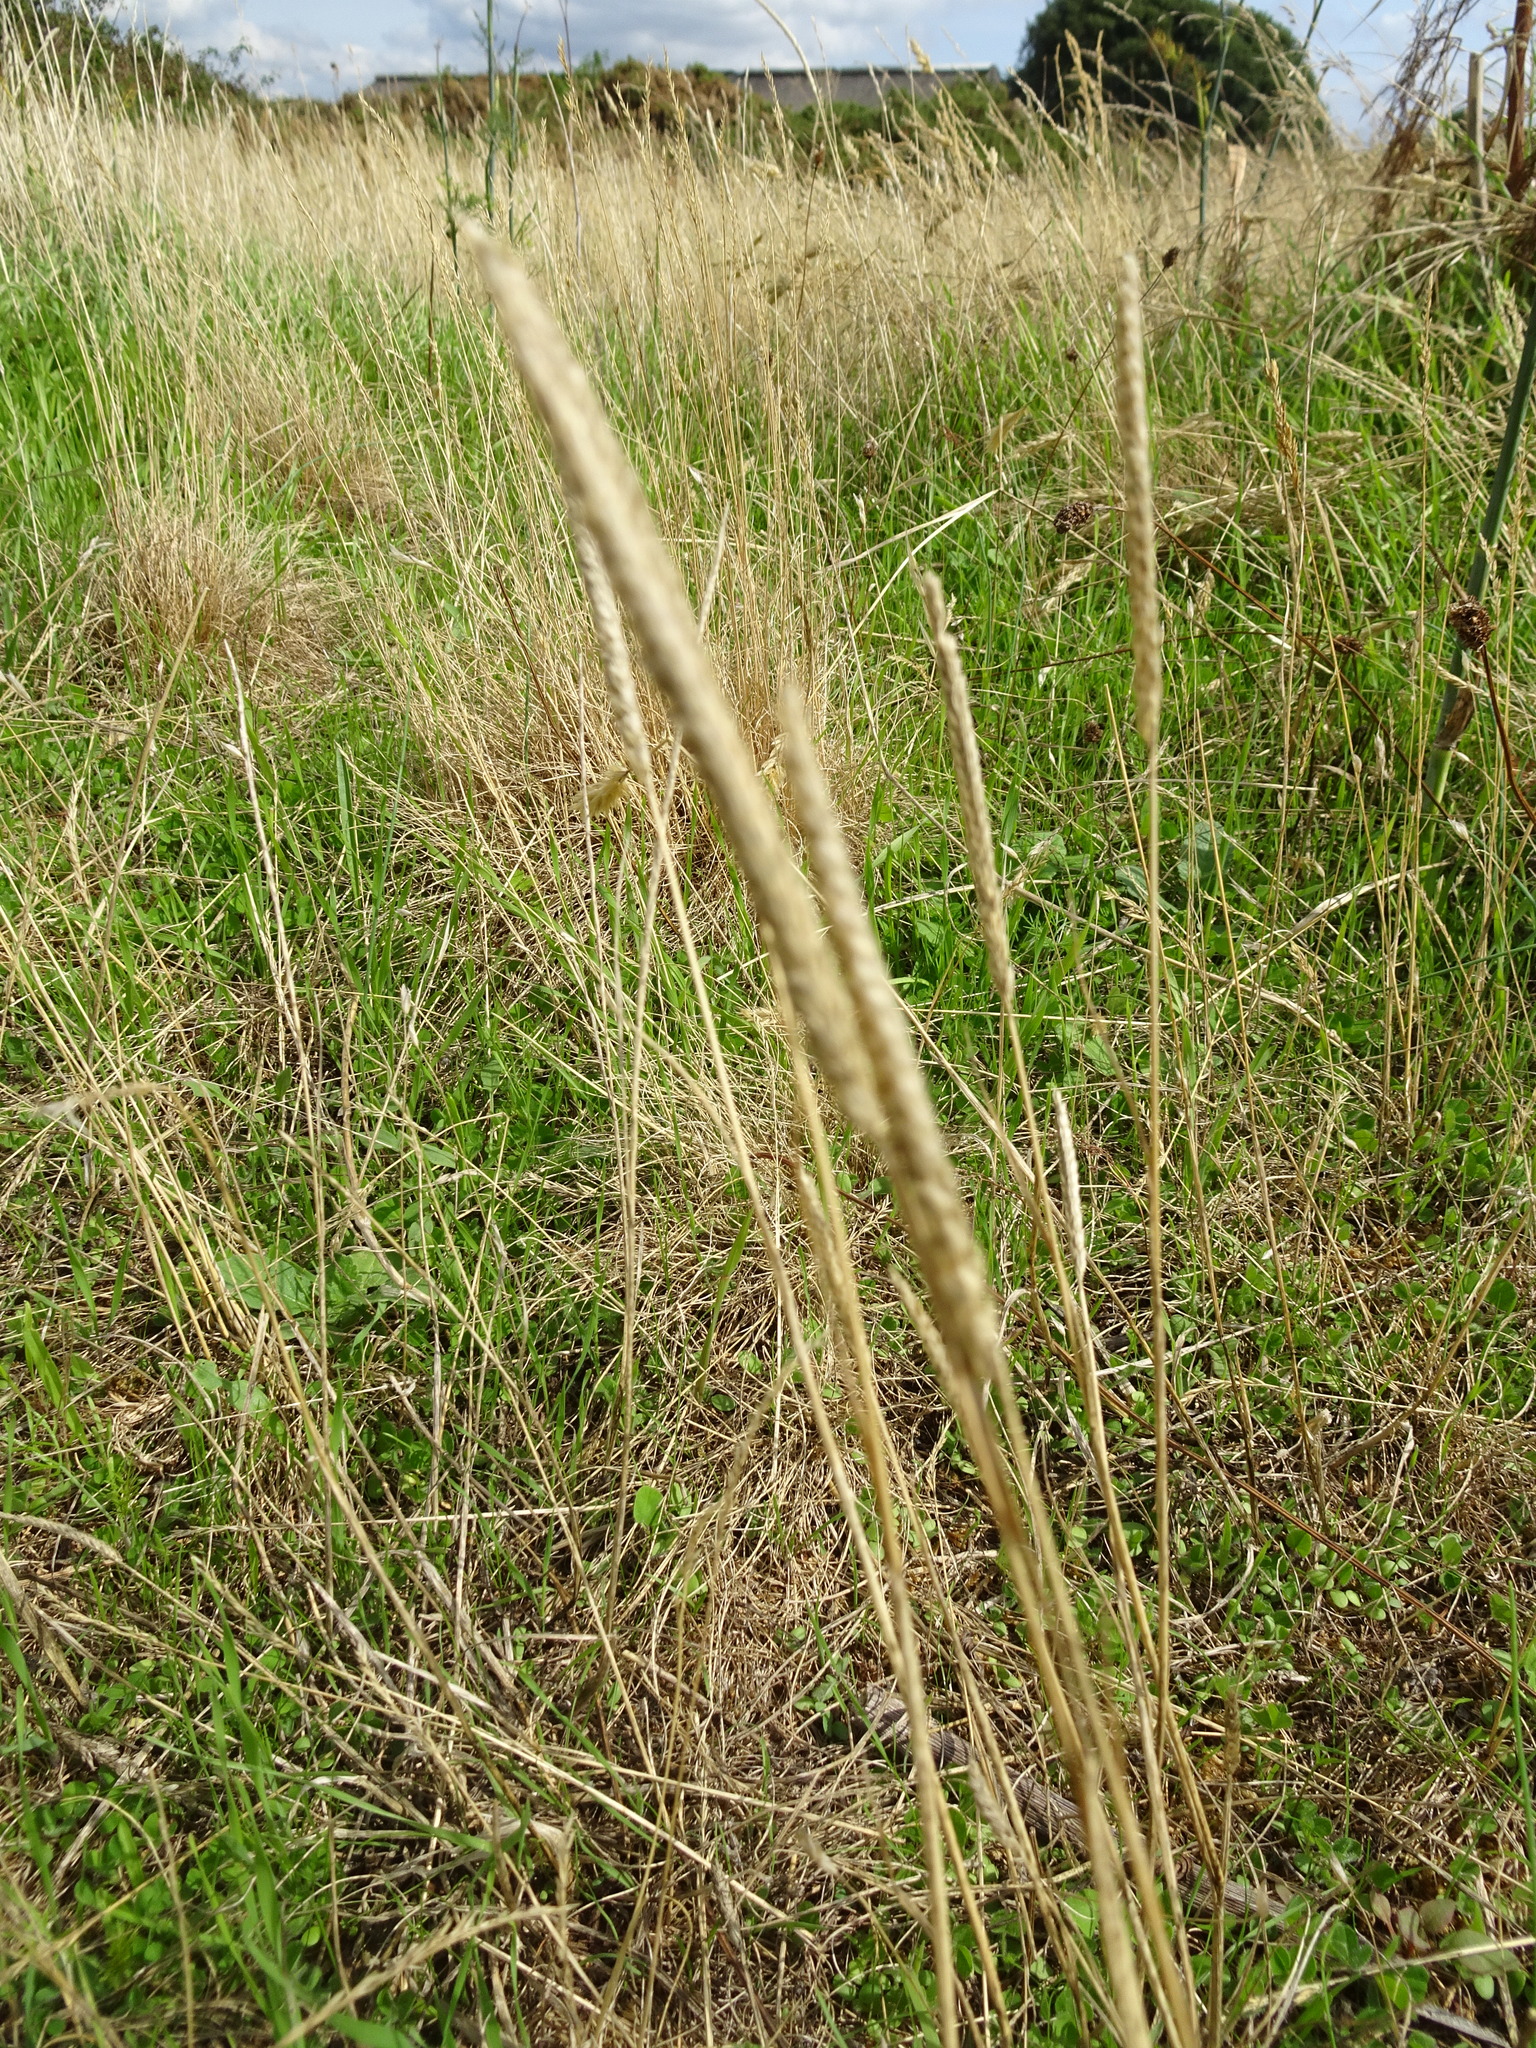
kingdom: Plantae
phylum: Tracheophyta
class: Liliopsida
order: Poales
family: Poaceae
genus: Cynosurus
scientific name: Cynosurus cristatus
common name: Crested dog's-tail
